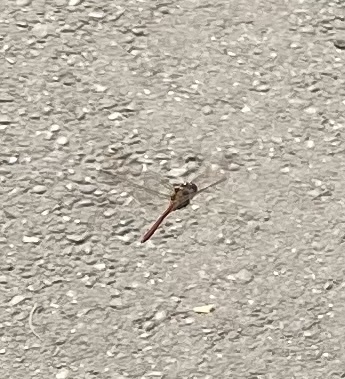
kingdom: Animalia
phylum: Arthropoda
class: Insecta
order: Odonata
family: Libellulidae
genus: Sympetrum
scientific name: Sympetrum
